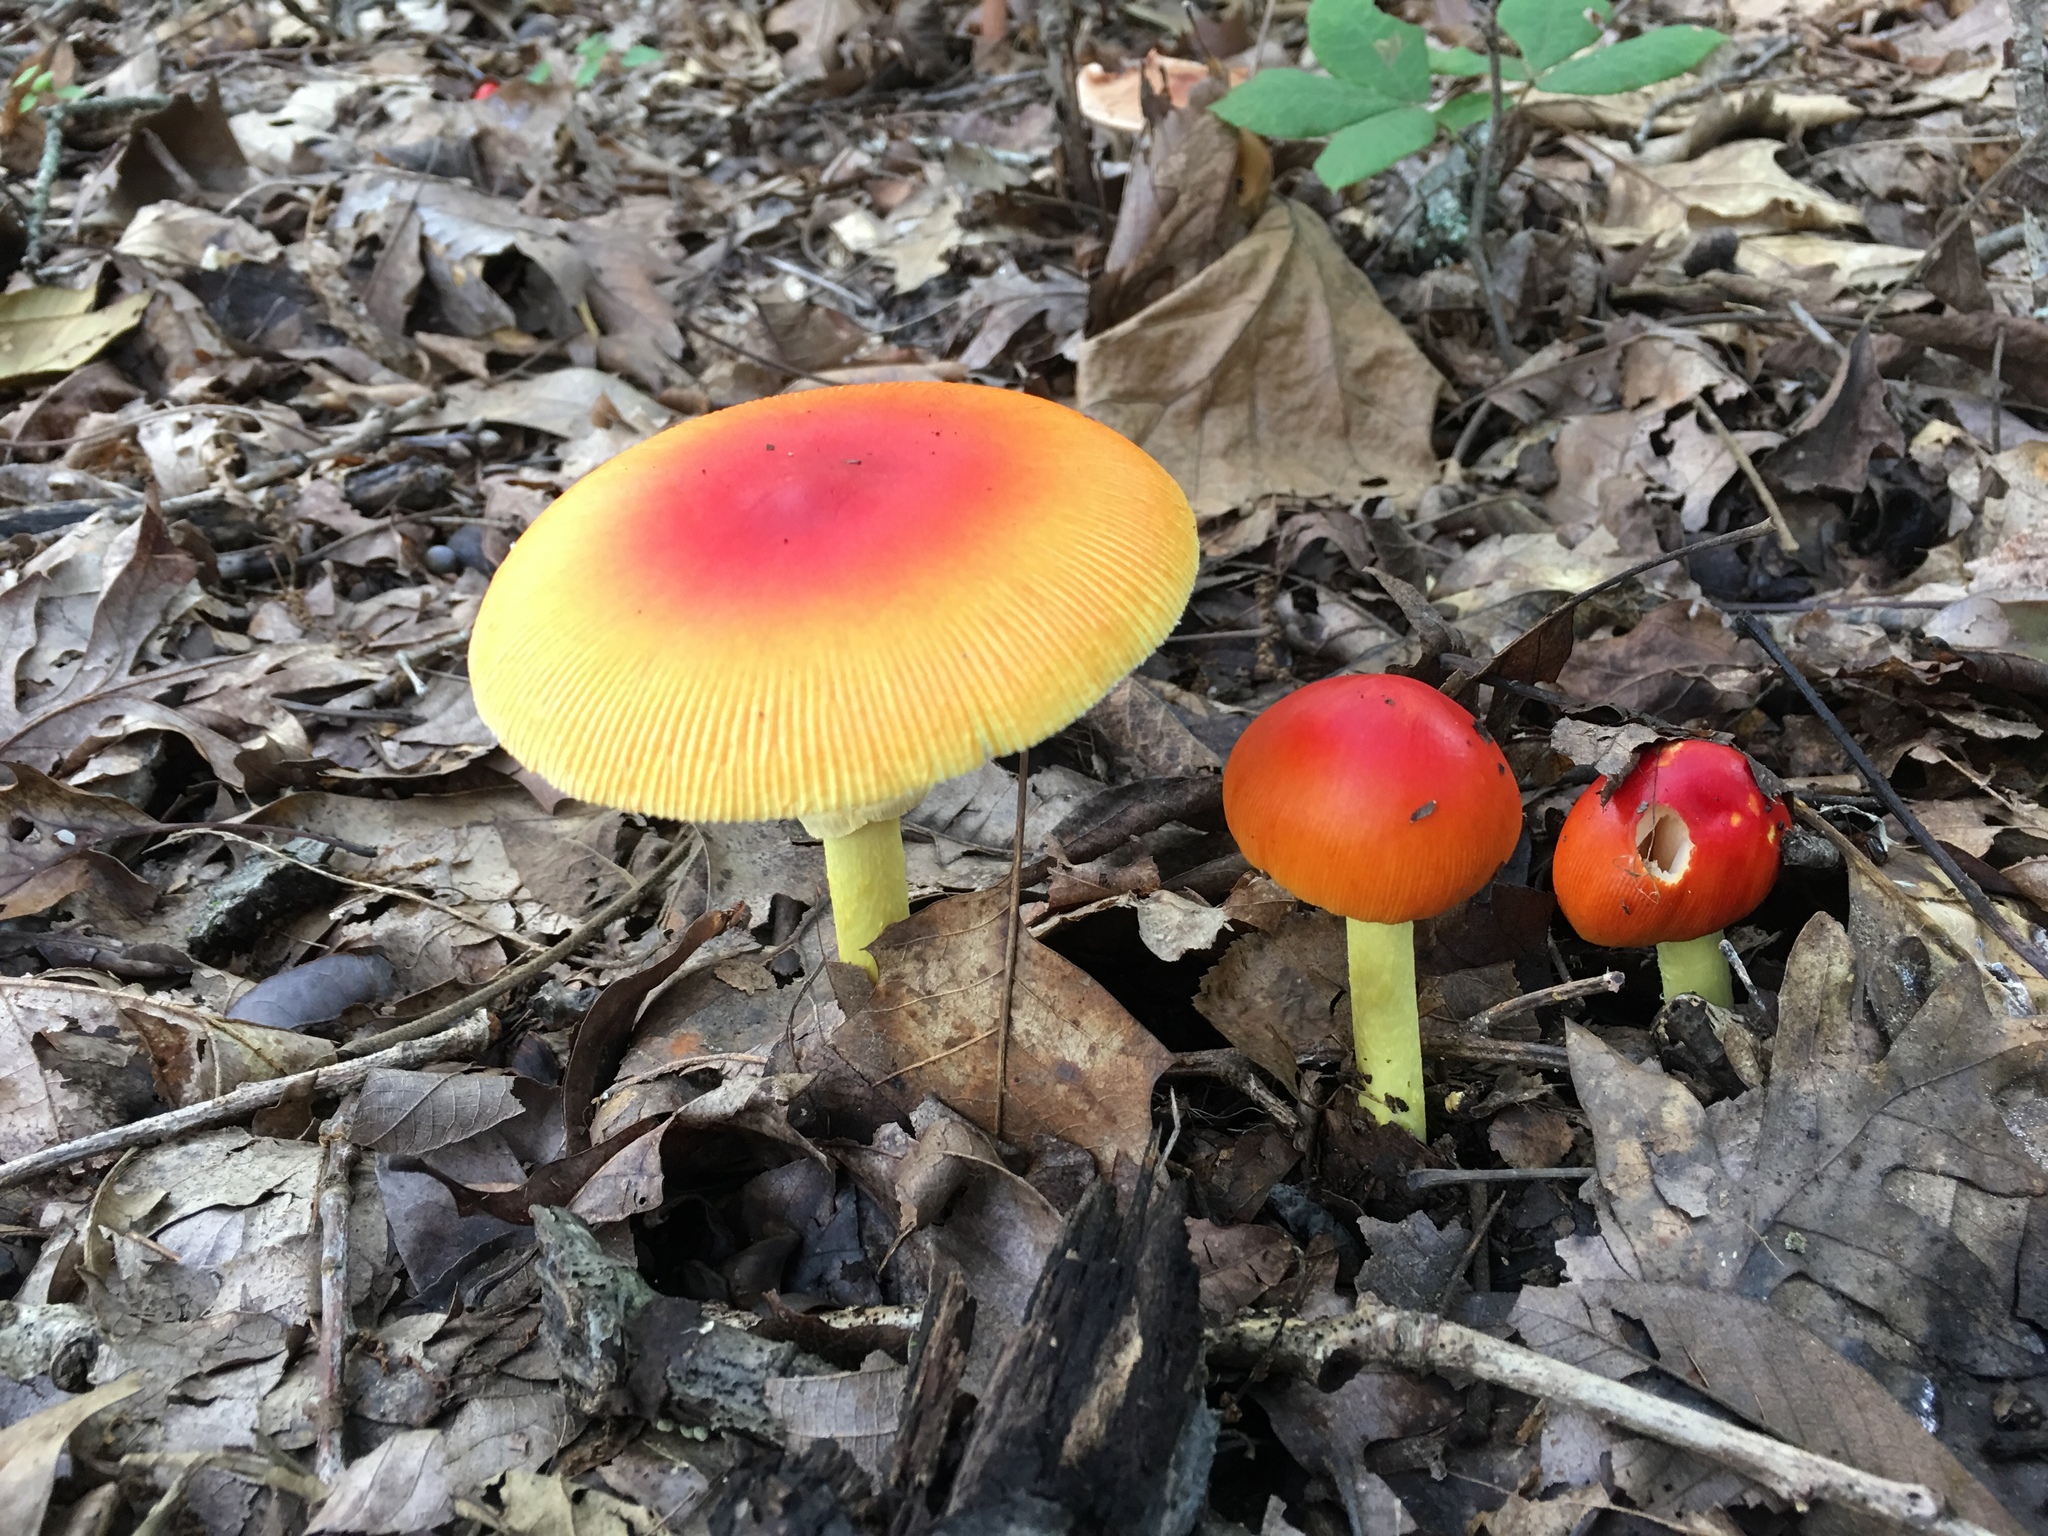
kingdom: Fungi
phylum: Basidiomycota
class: Agaricomycetes
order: Agaricales
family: Amanitaceae
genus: Amanita
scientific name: Amanita jacksonii
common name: Jackson's slender caesar
